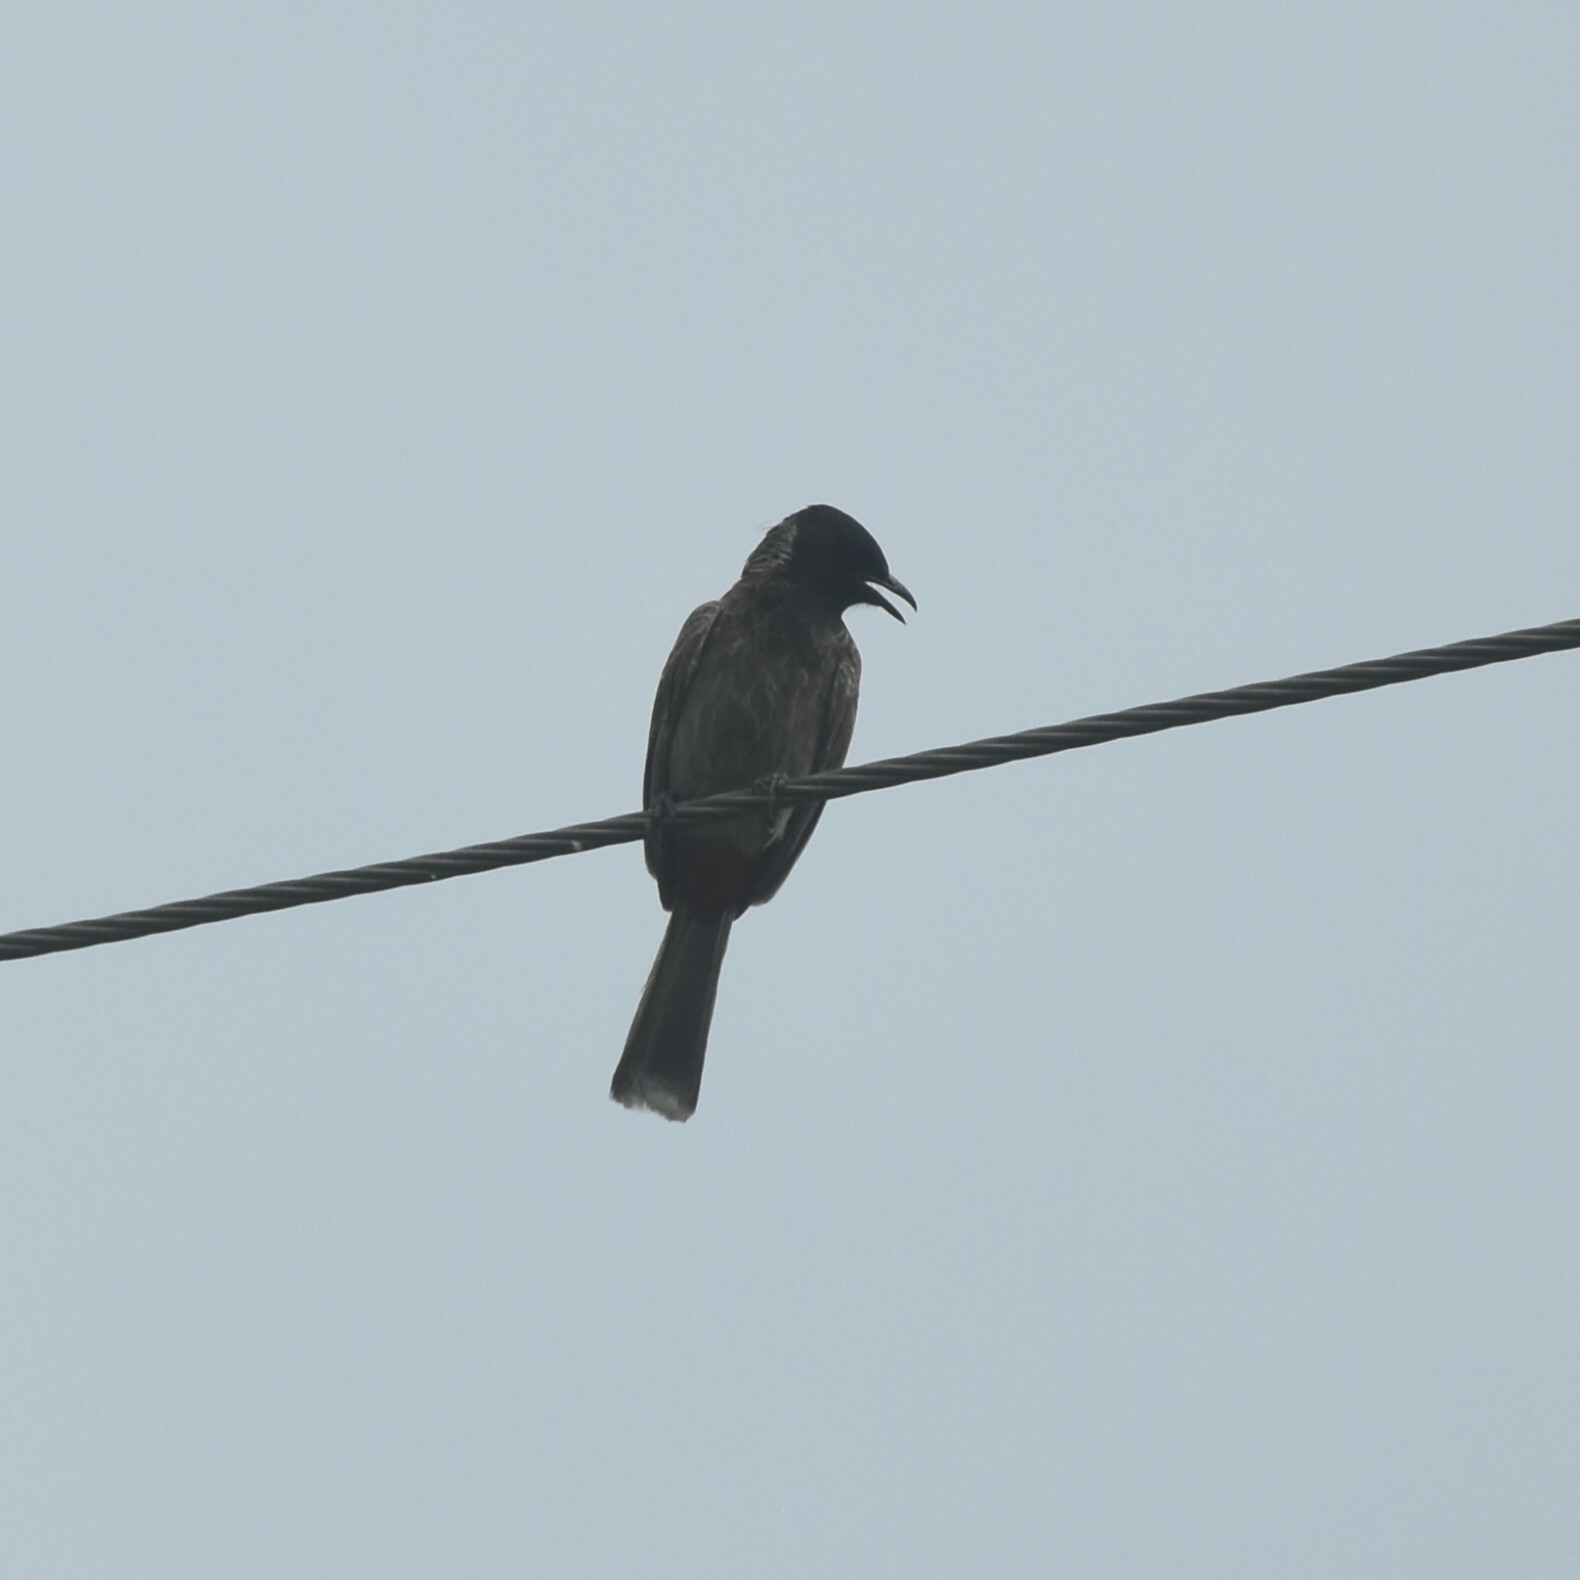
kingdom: Animalia
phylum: Chordata
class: Aves
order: Passeriformes
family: Pycnonotidae
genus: Pycnonotus
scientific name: Pycnonotus cafer
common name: Red-vented bulbul
